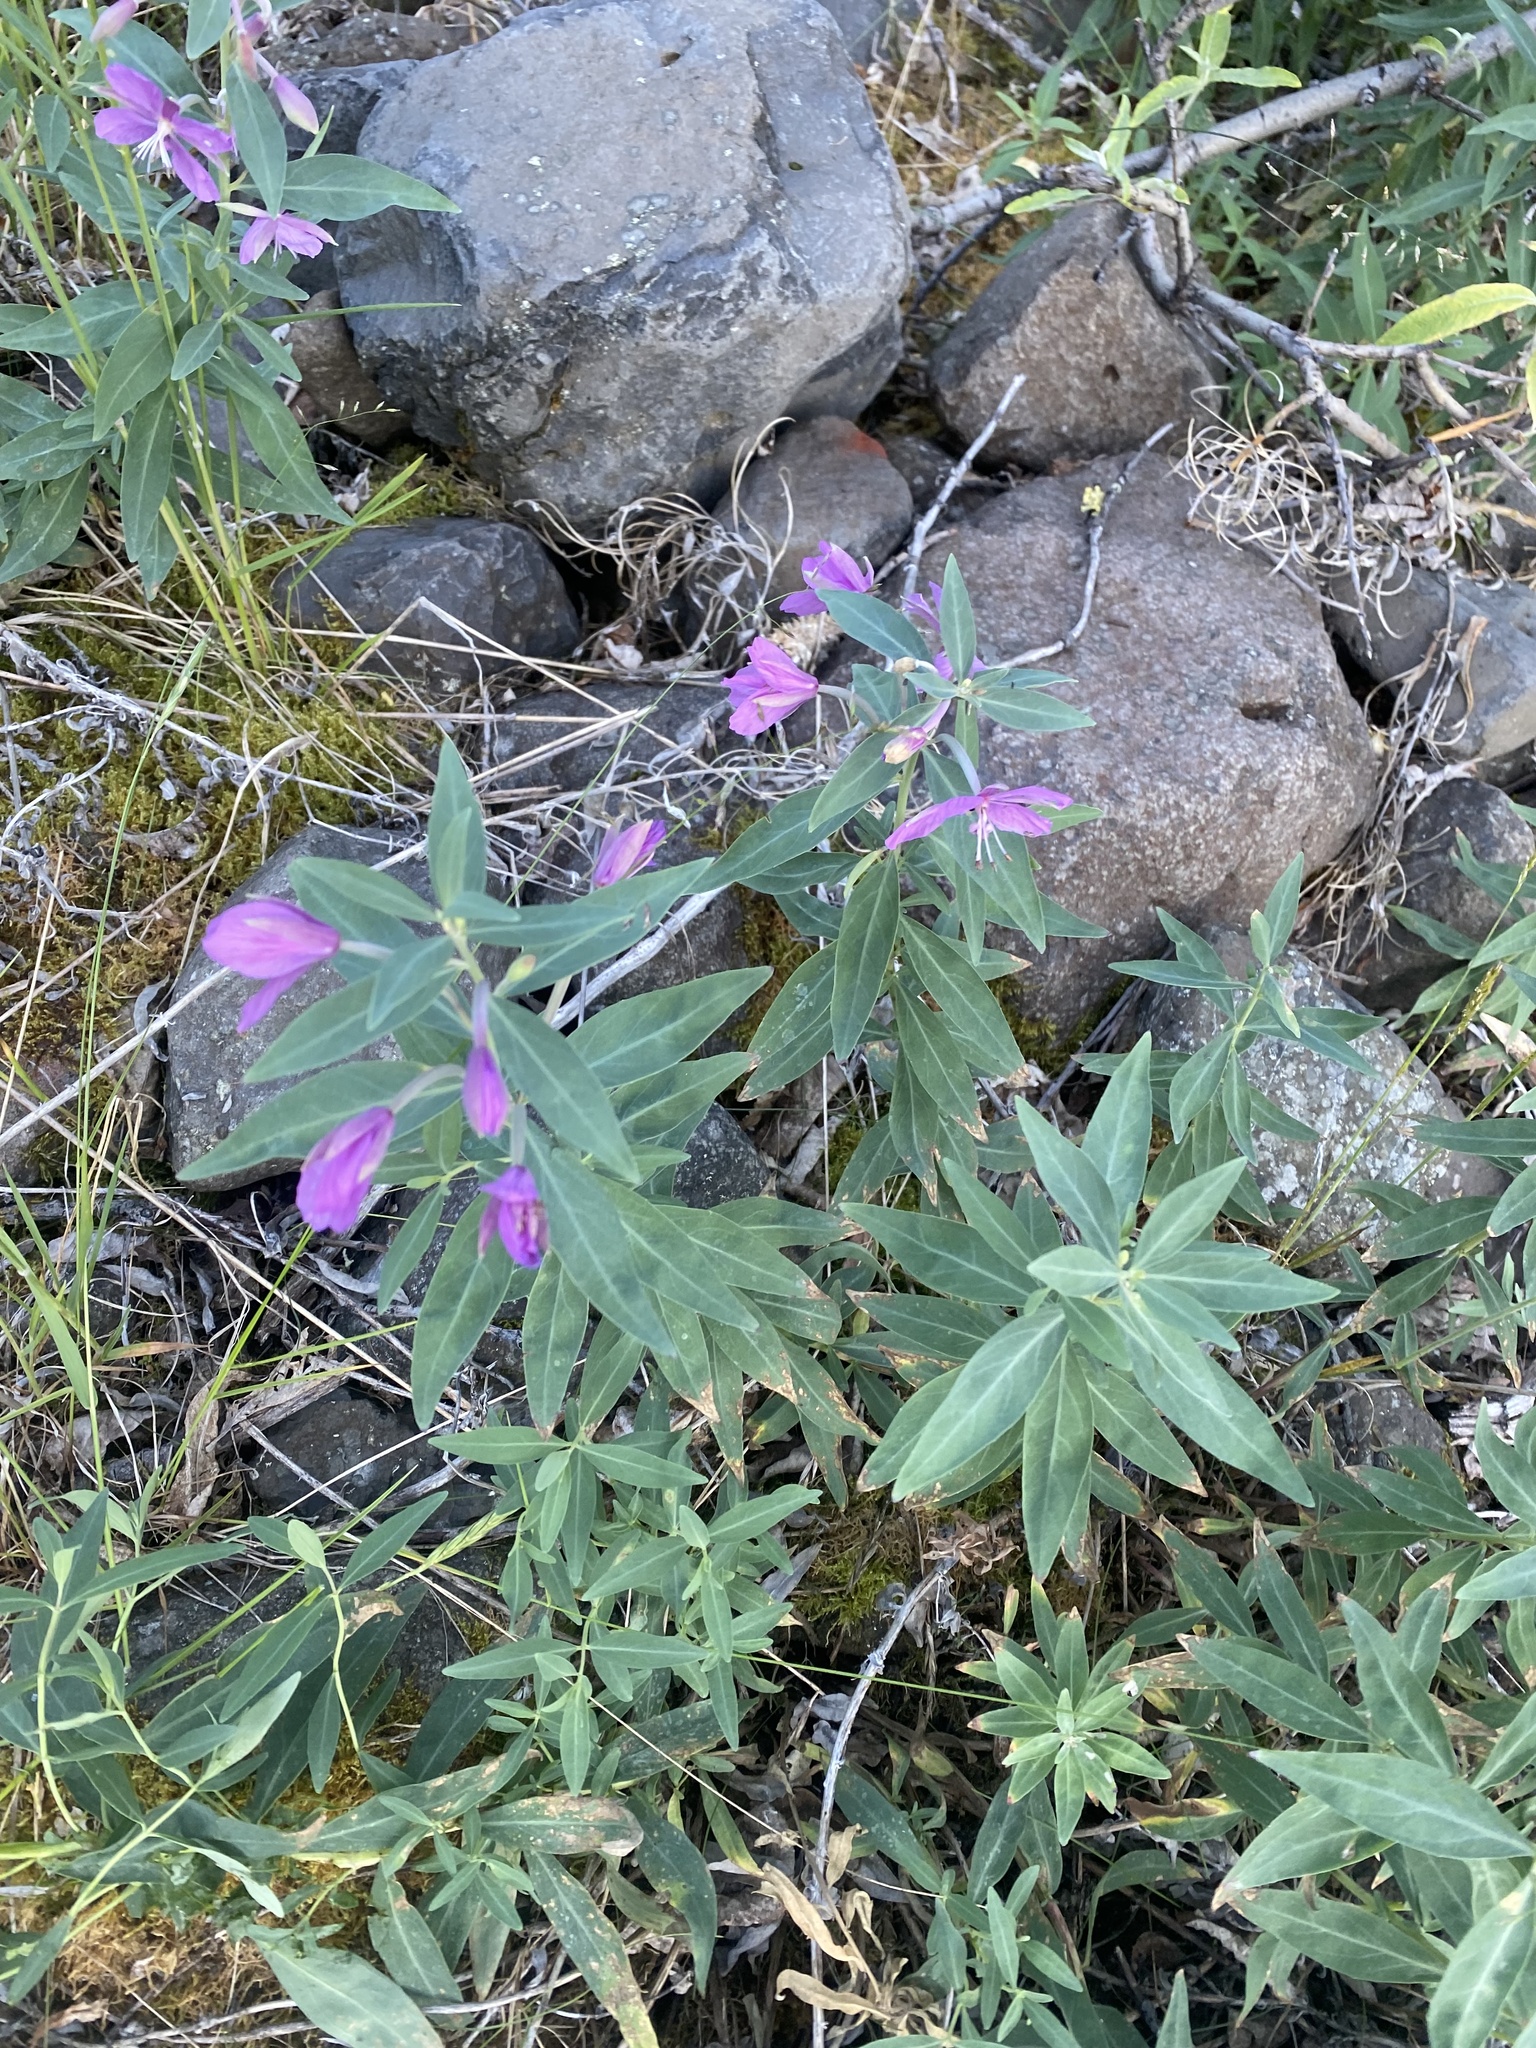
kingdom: Plantae
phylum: Tracheophyta
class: Magnoliopsida
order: Myrtales
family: Onagraceae
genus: Chamaenerion
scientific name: Chamaenerion latifolium
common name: Dwarf fireweed
